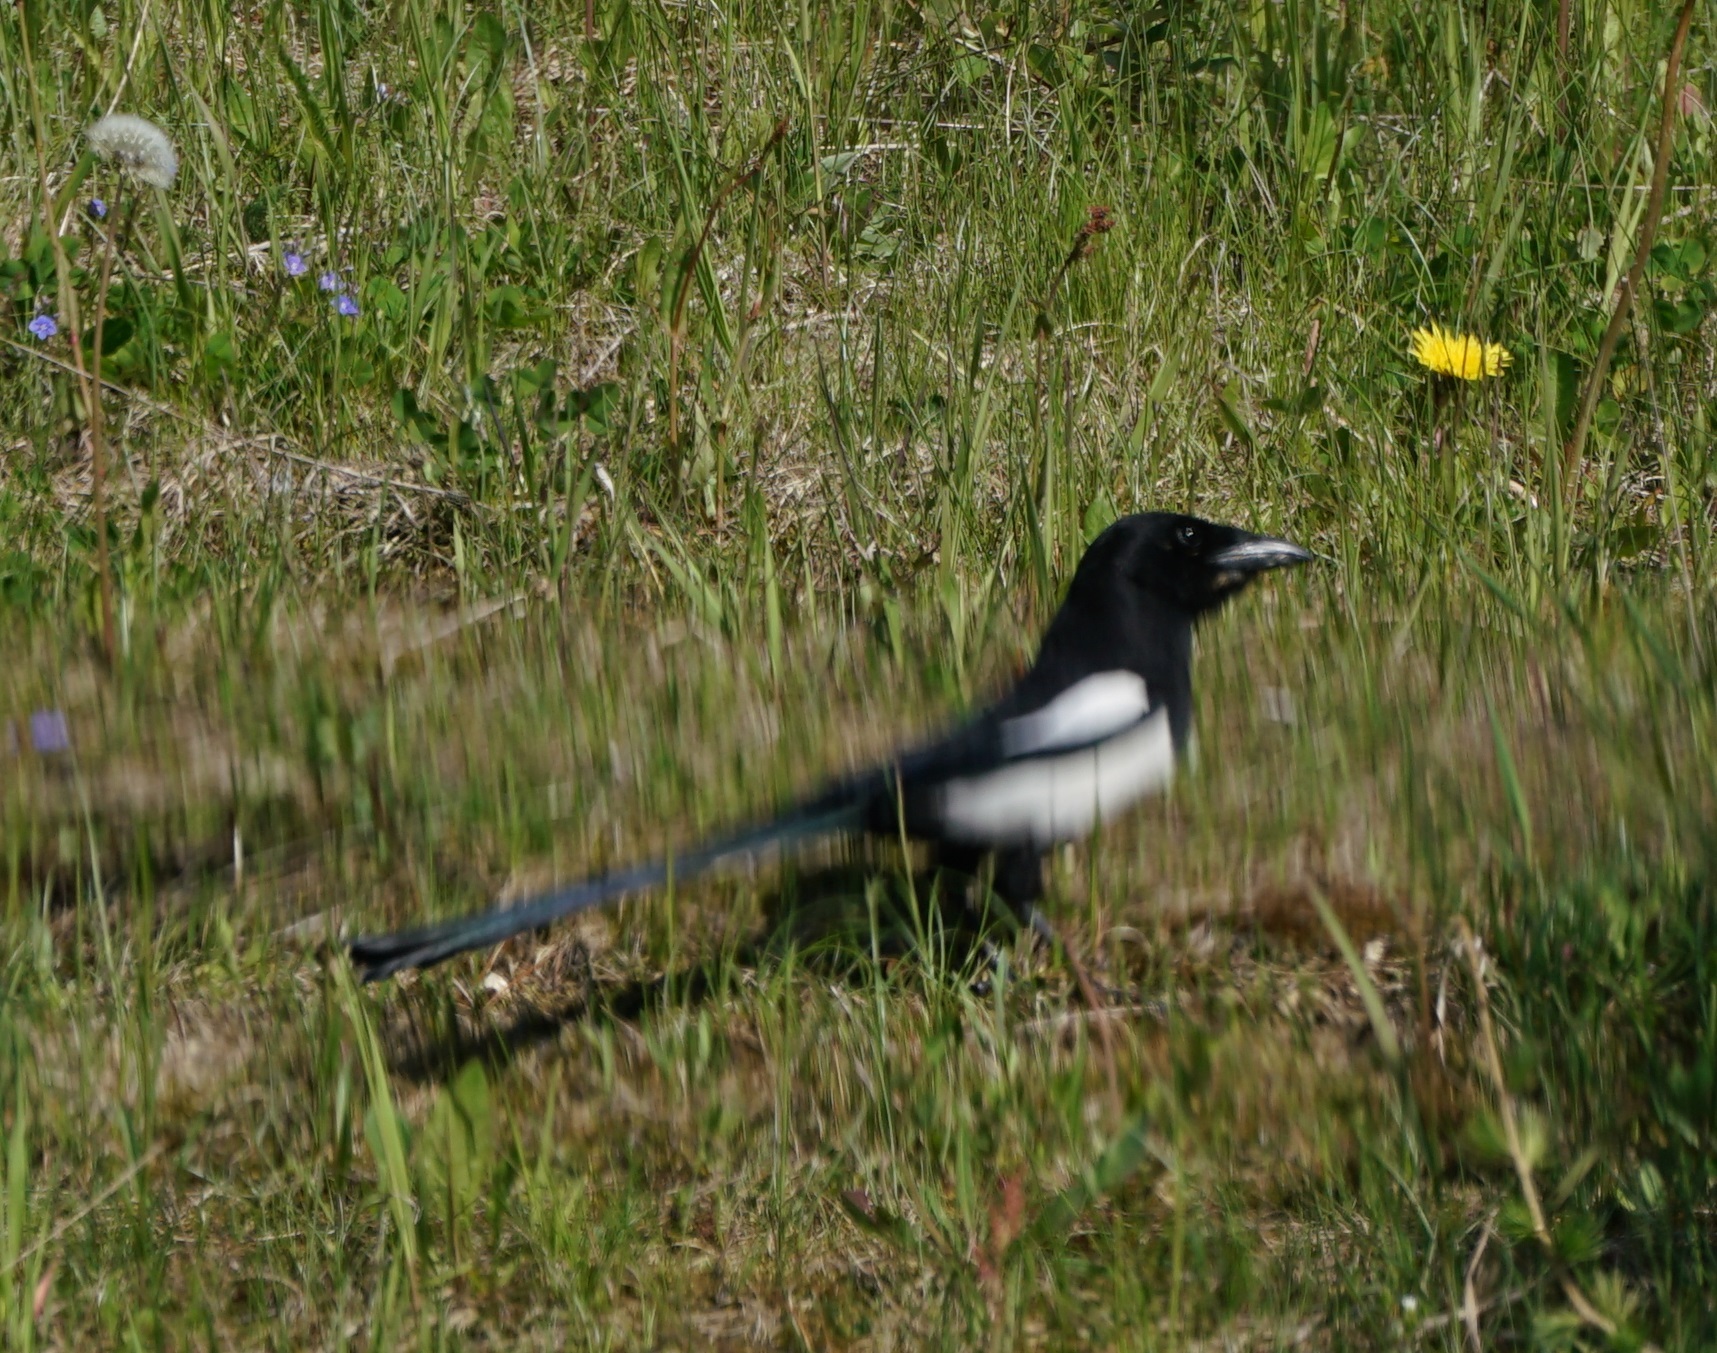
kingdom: Animalia
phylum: Chordata
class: Aves
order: Passeriformes
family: Corvidae
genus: Pica
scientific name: Pica pica
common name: Eurasian magpie
